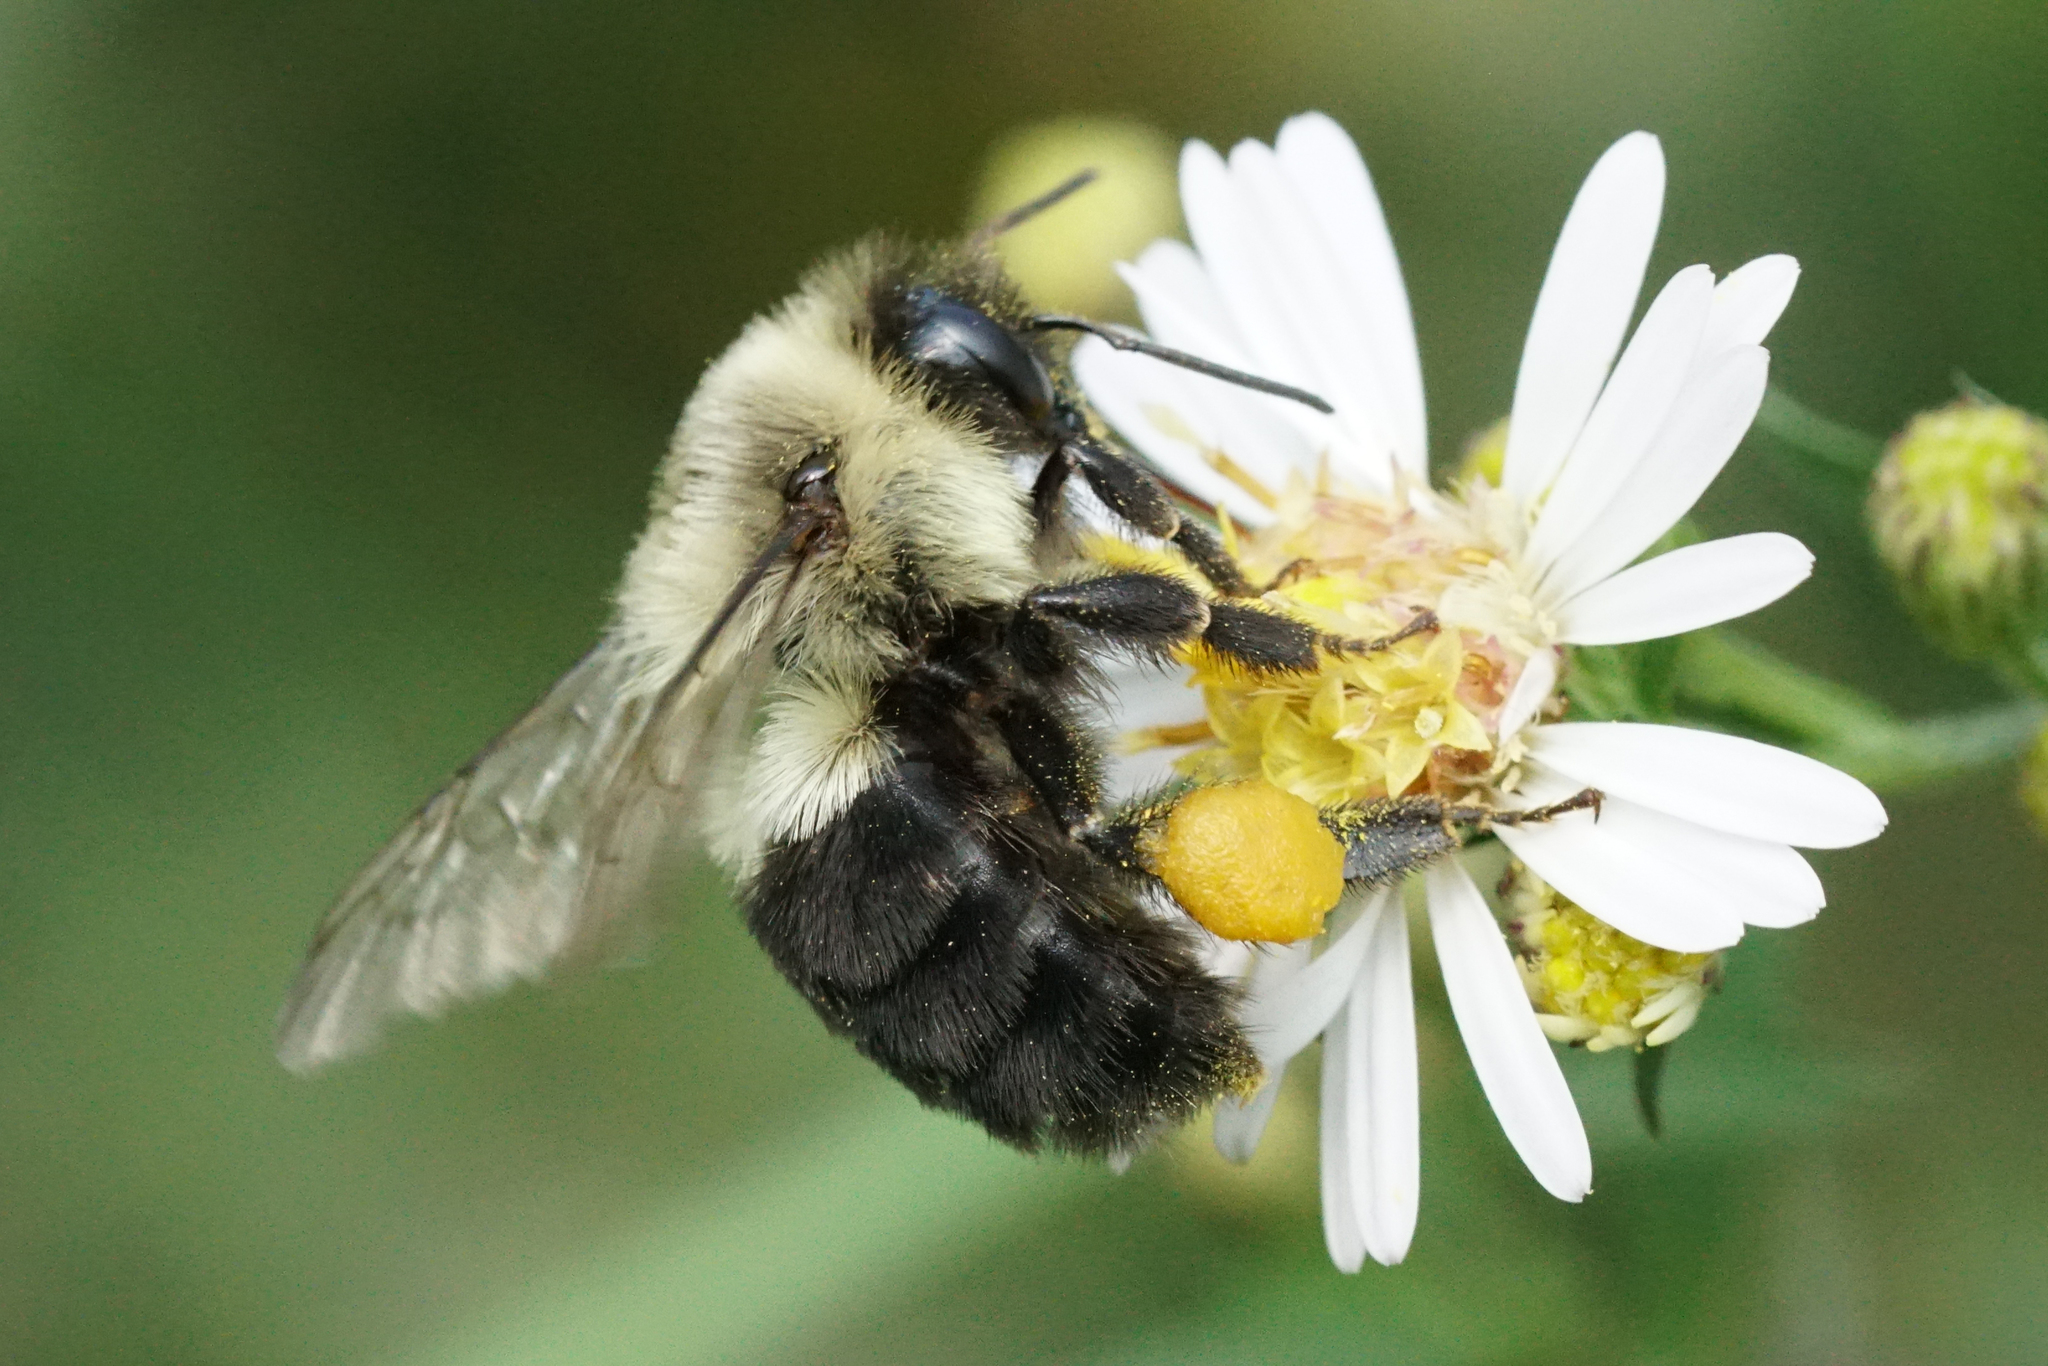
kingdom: Animalia
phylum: Arthropoda
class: Insecta
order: Hymenoptera
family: Apidae
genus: Bombus
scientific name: Bombus impatiens
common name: Common eastern bumble bee
